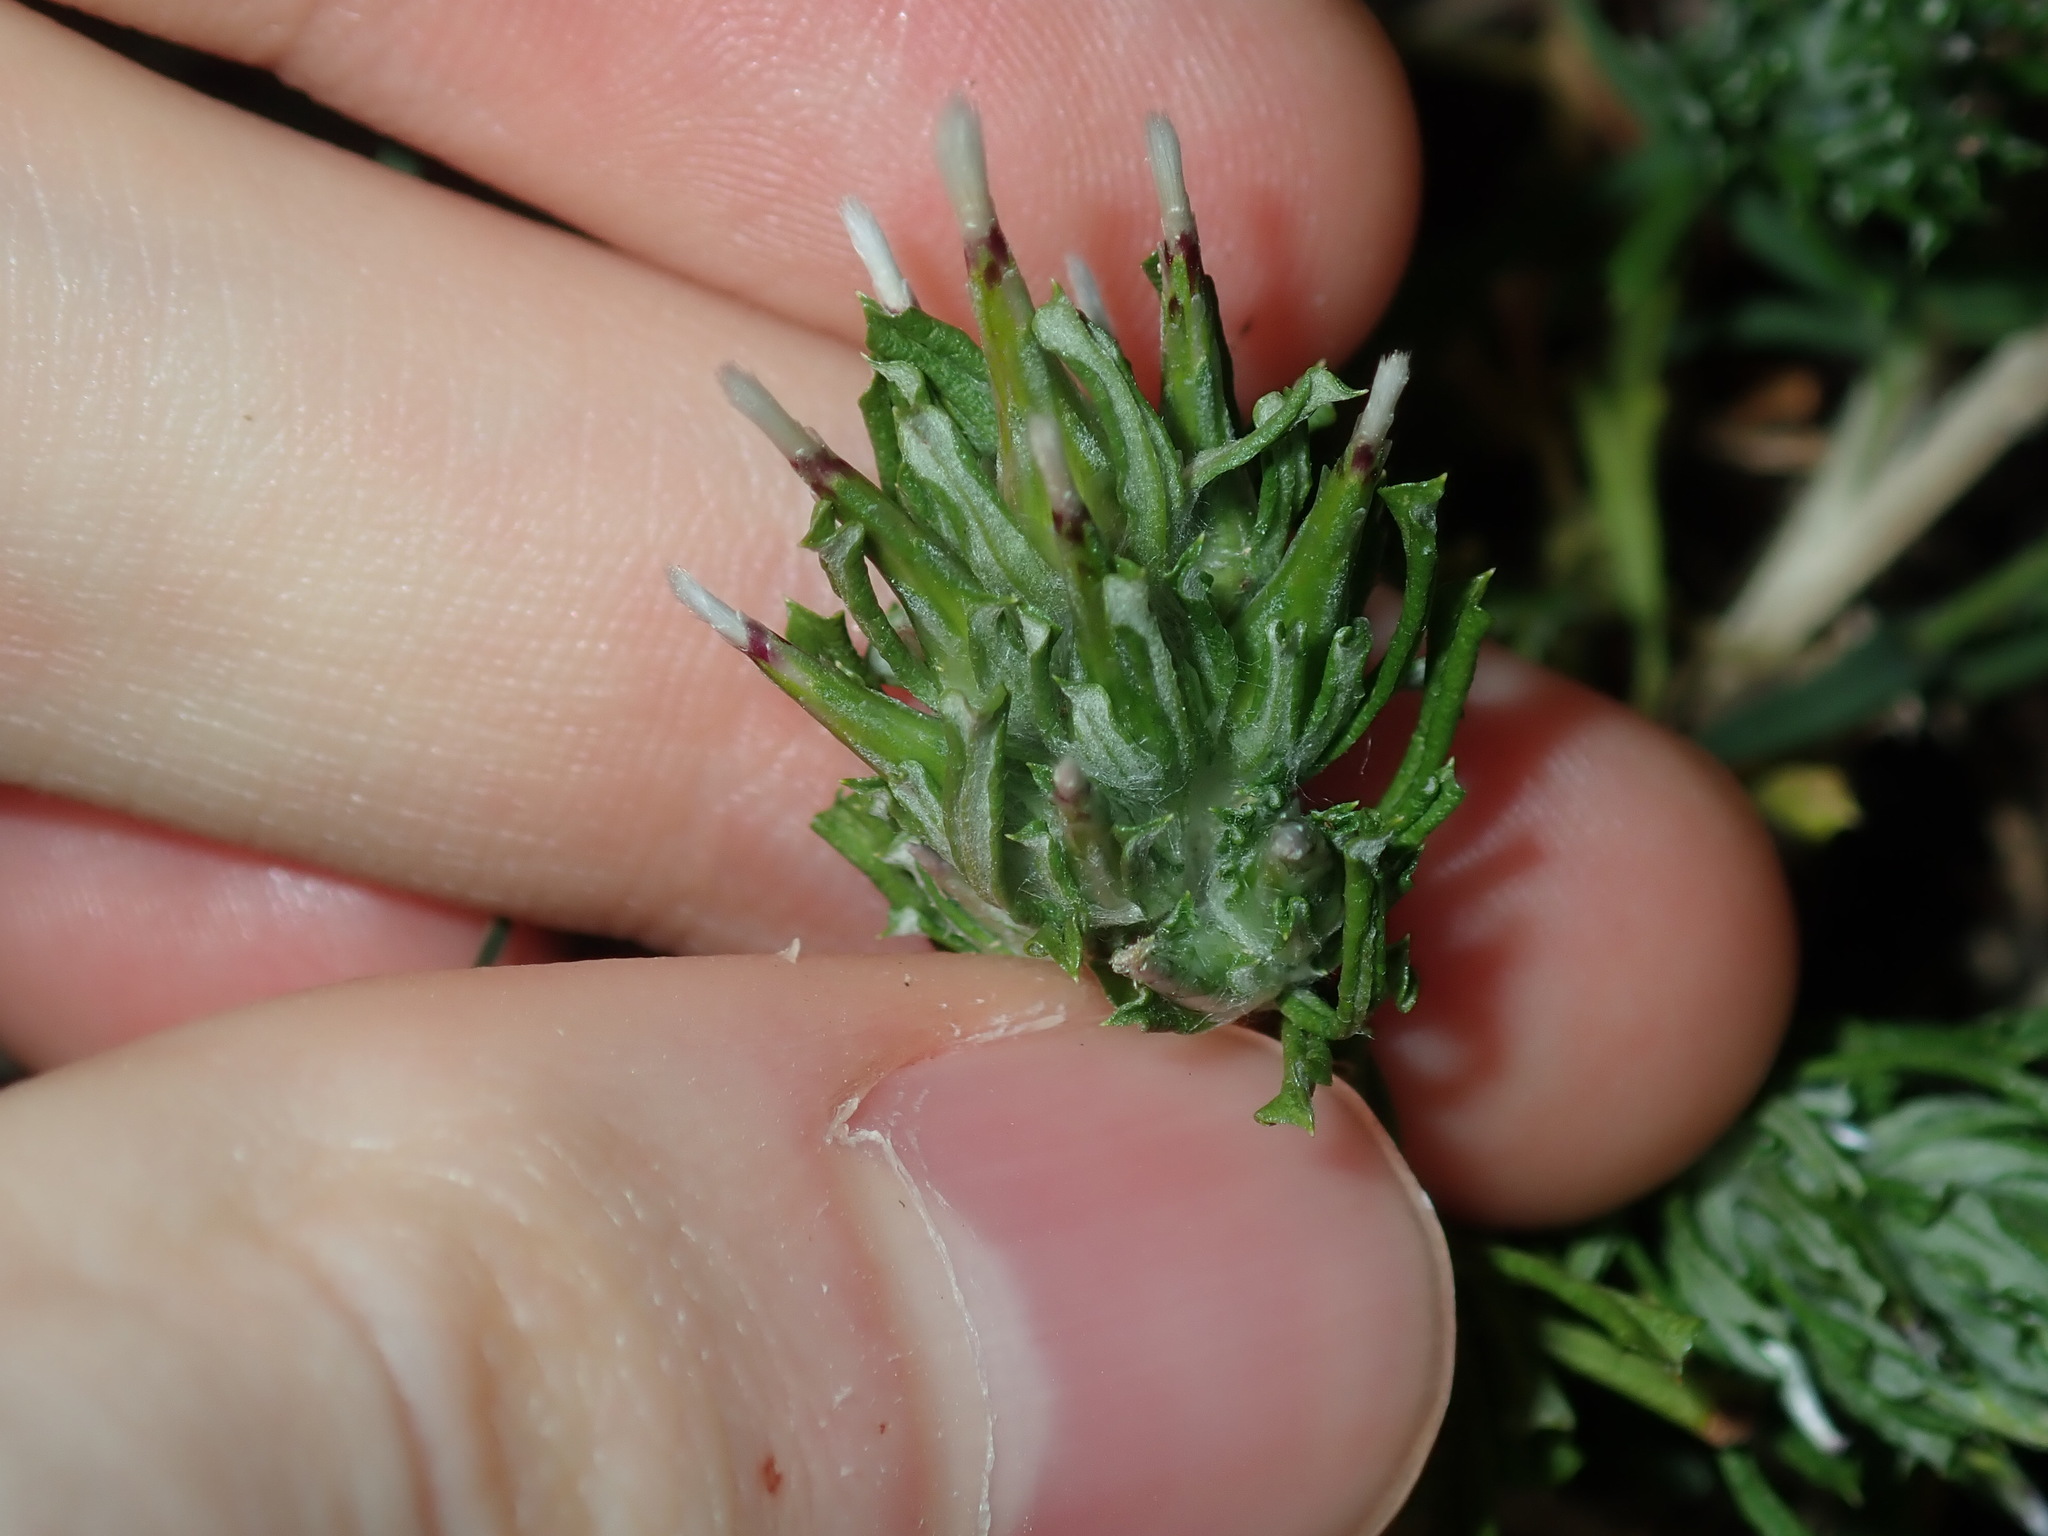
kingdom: Plantae
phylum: Tracheophyta
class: Magnoliopsida
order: Asterales
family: Asteraceae
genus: Facelis
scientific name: Facelis retusa
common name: Annual trampweed
